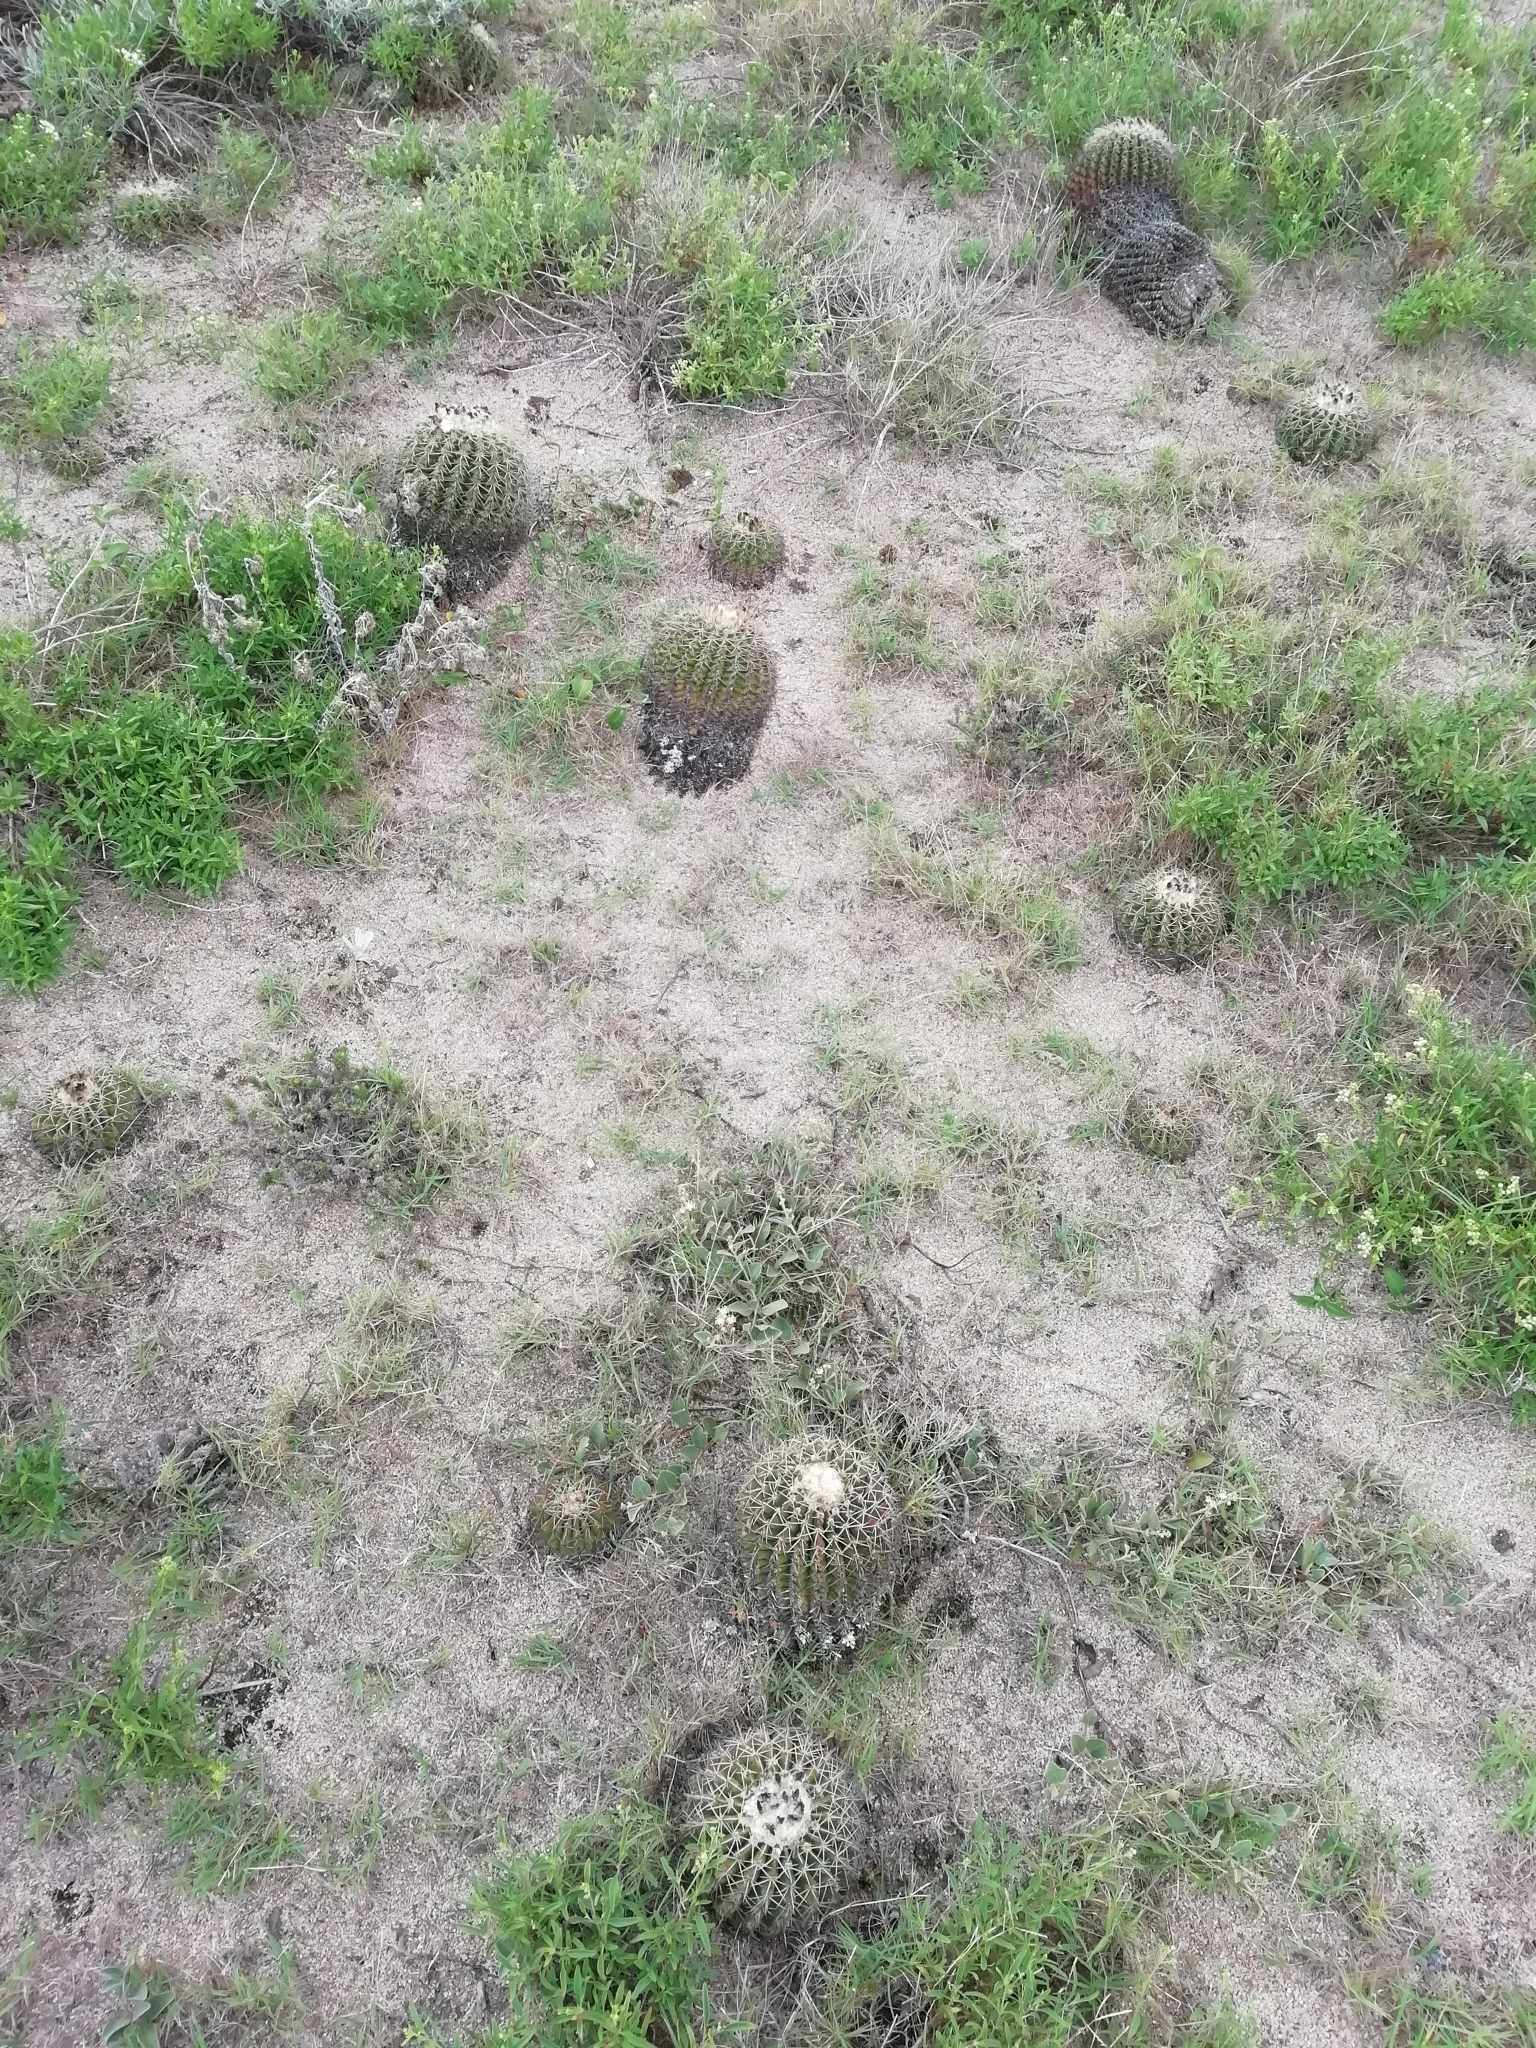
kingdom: Plantae
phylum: Tracheophyta
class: Magnoliopsida
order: Caryophyllales
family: Cactaceae
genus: Parodia
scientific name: Parodia erinacea
